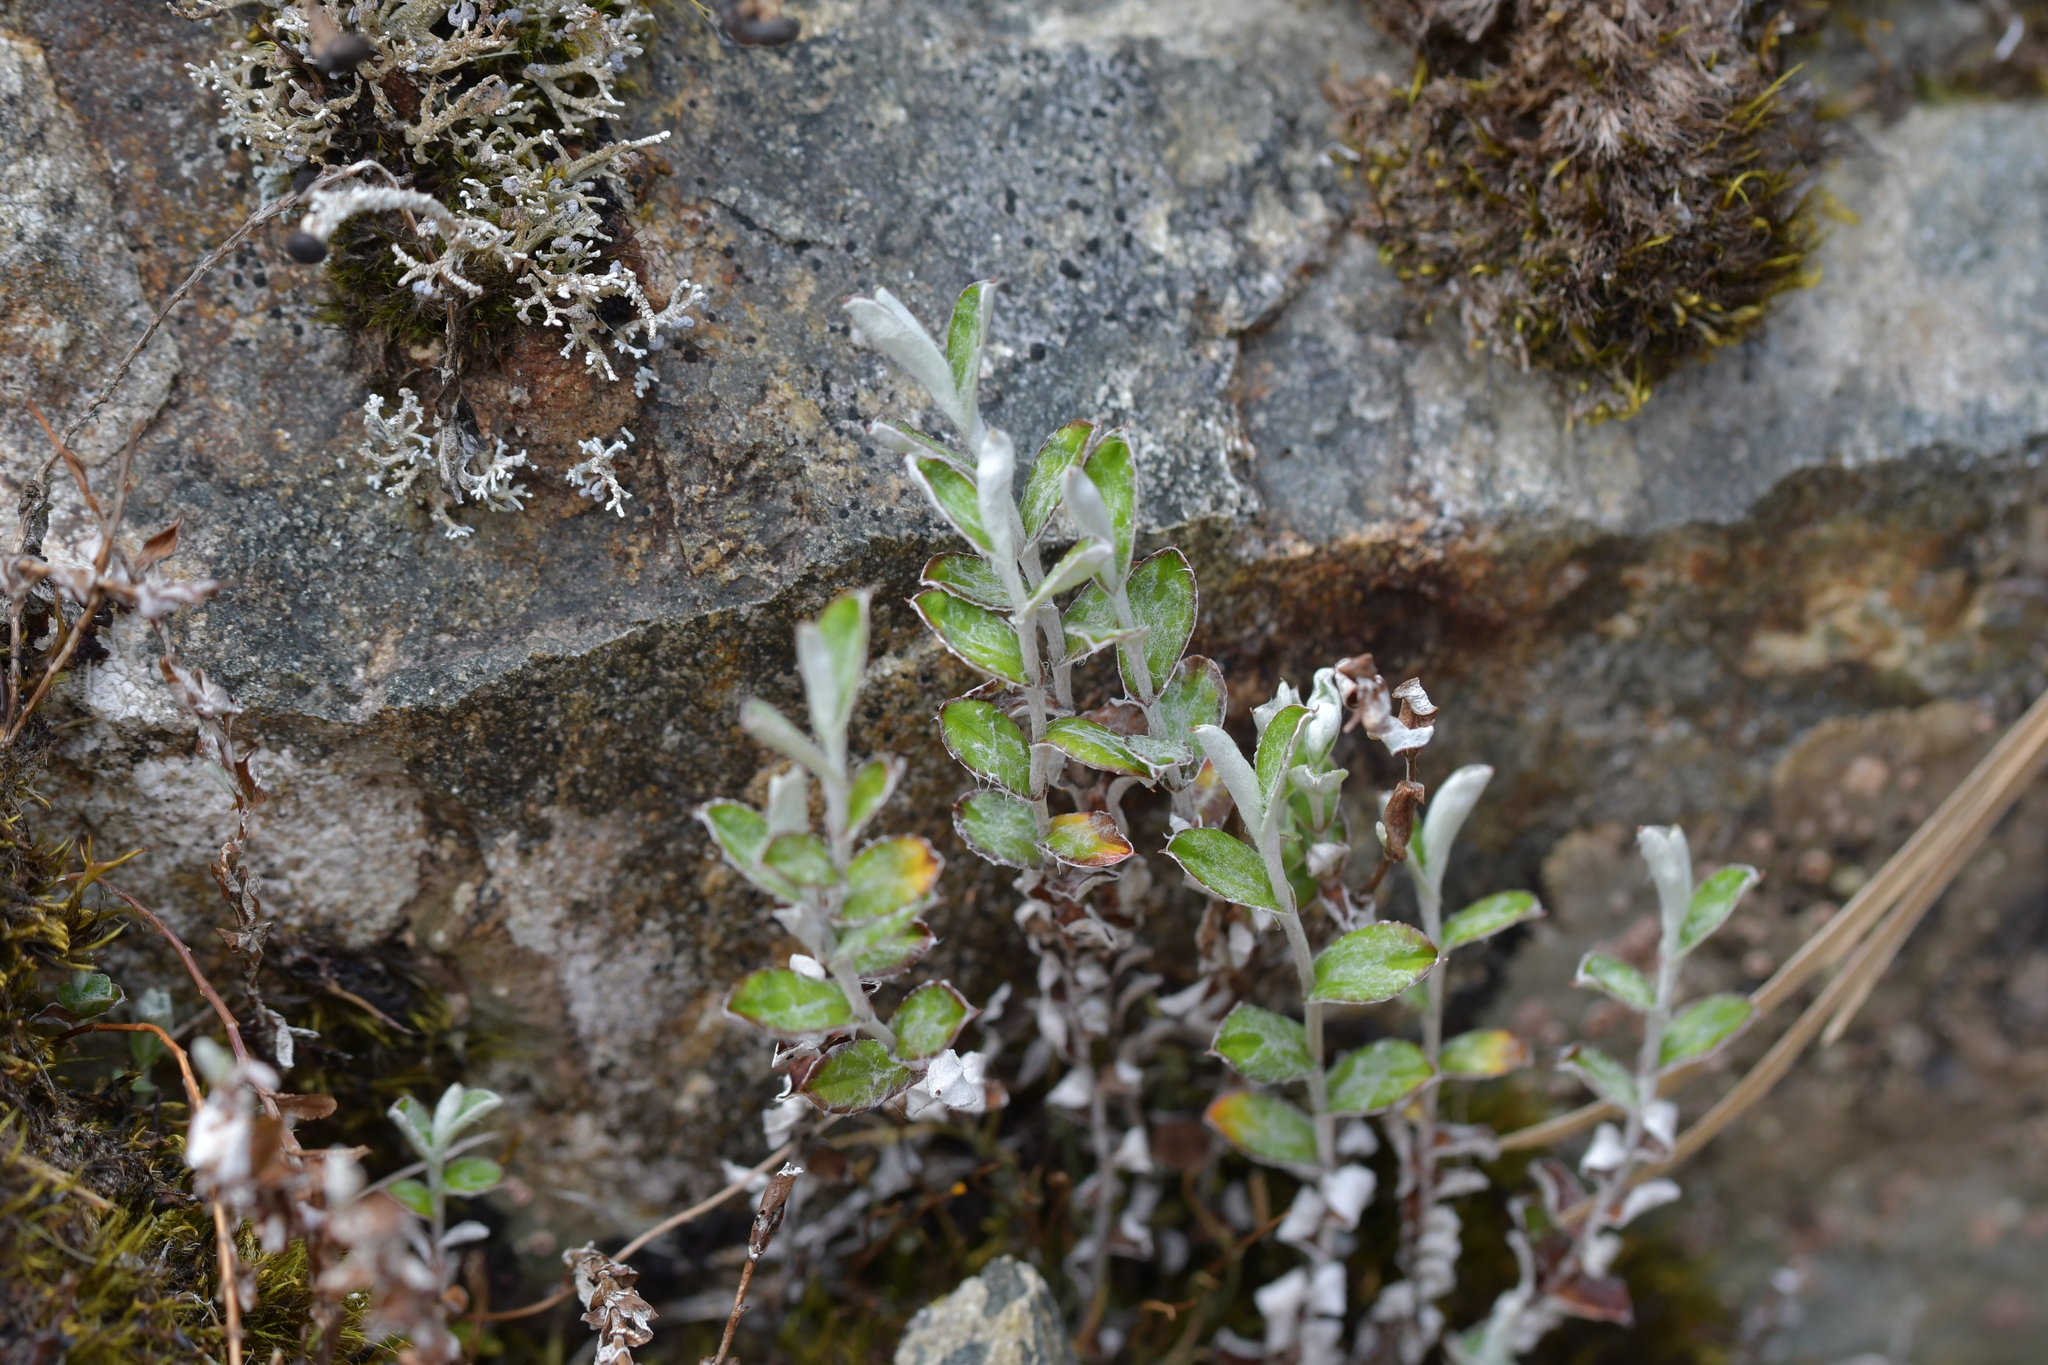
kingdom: Plantae
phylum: Tracheophyta
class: Magnoliopsida
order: Asterales
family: Asteraceae
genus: Helichrysum
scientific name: Helichrysum filicaule
